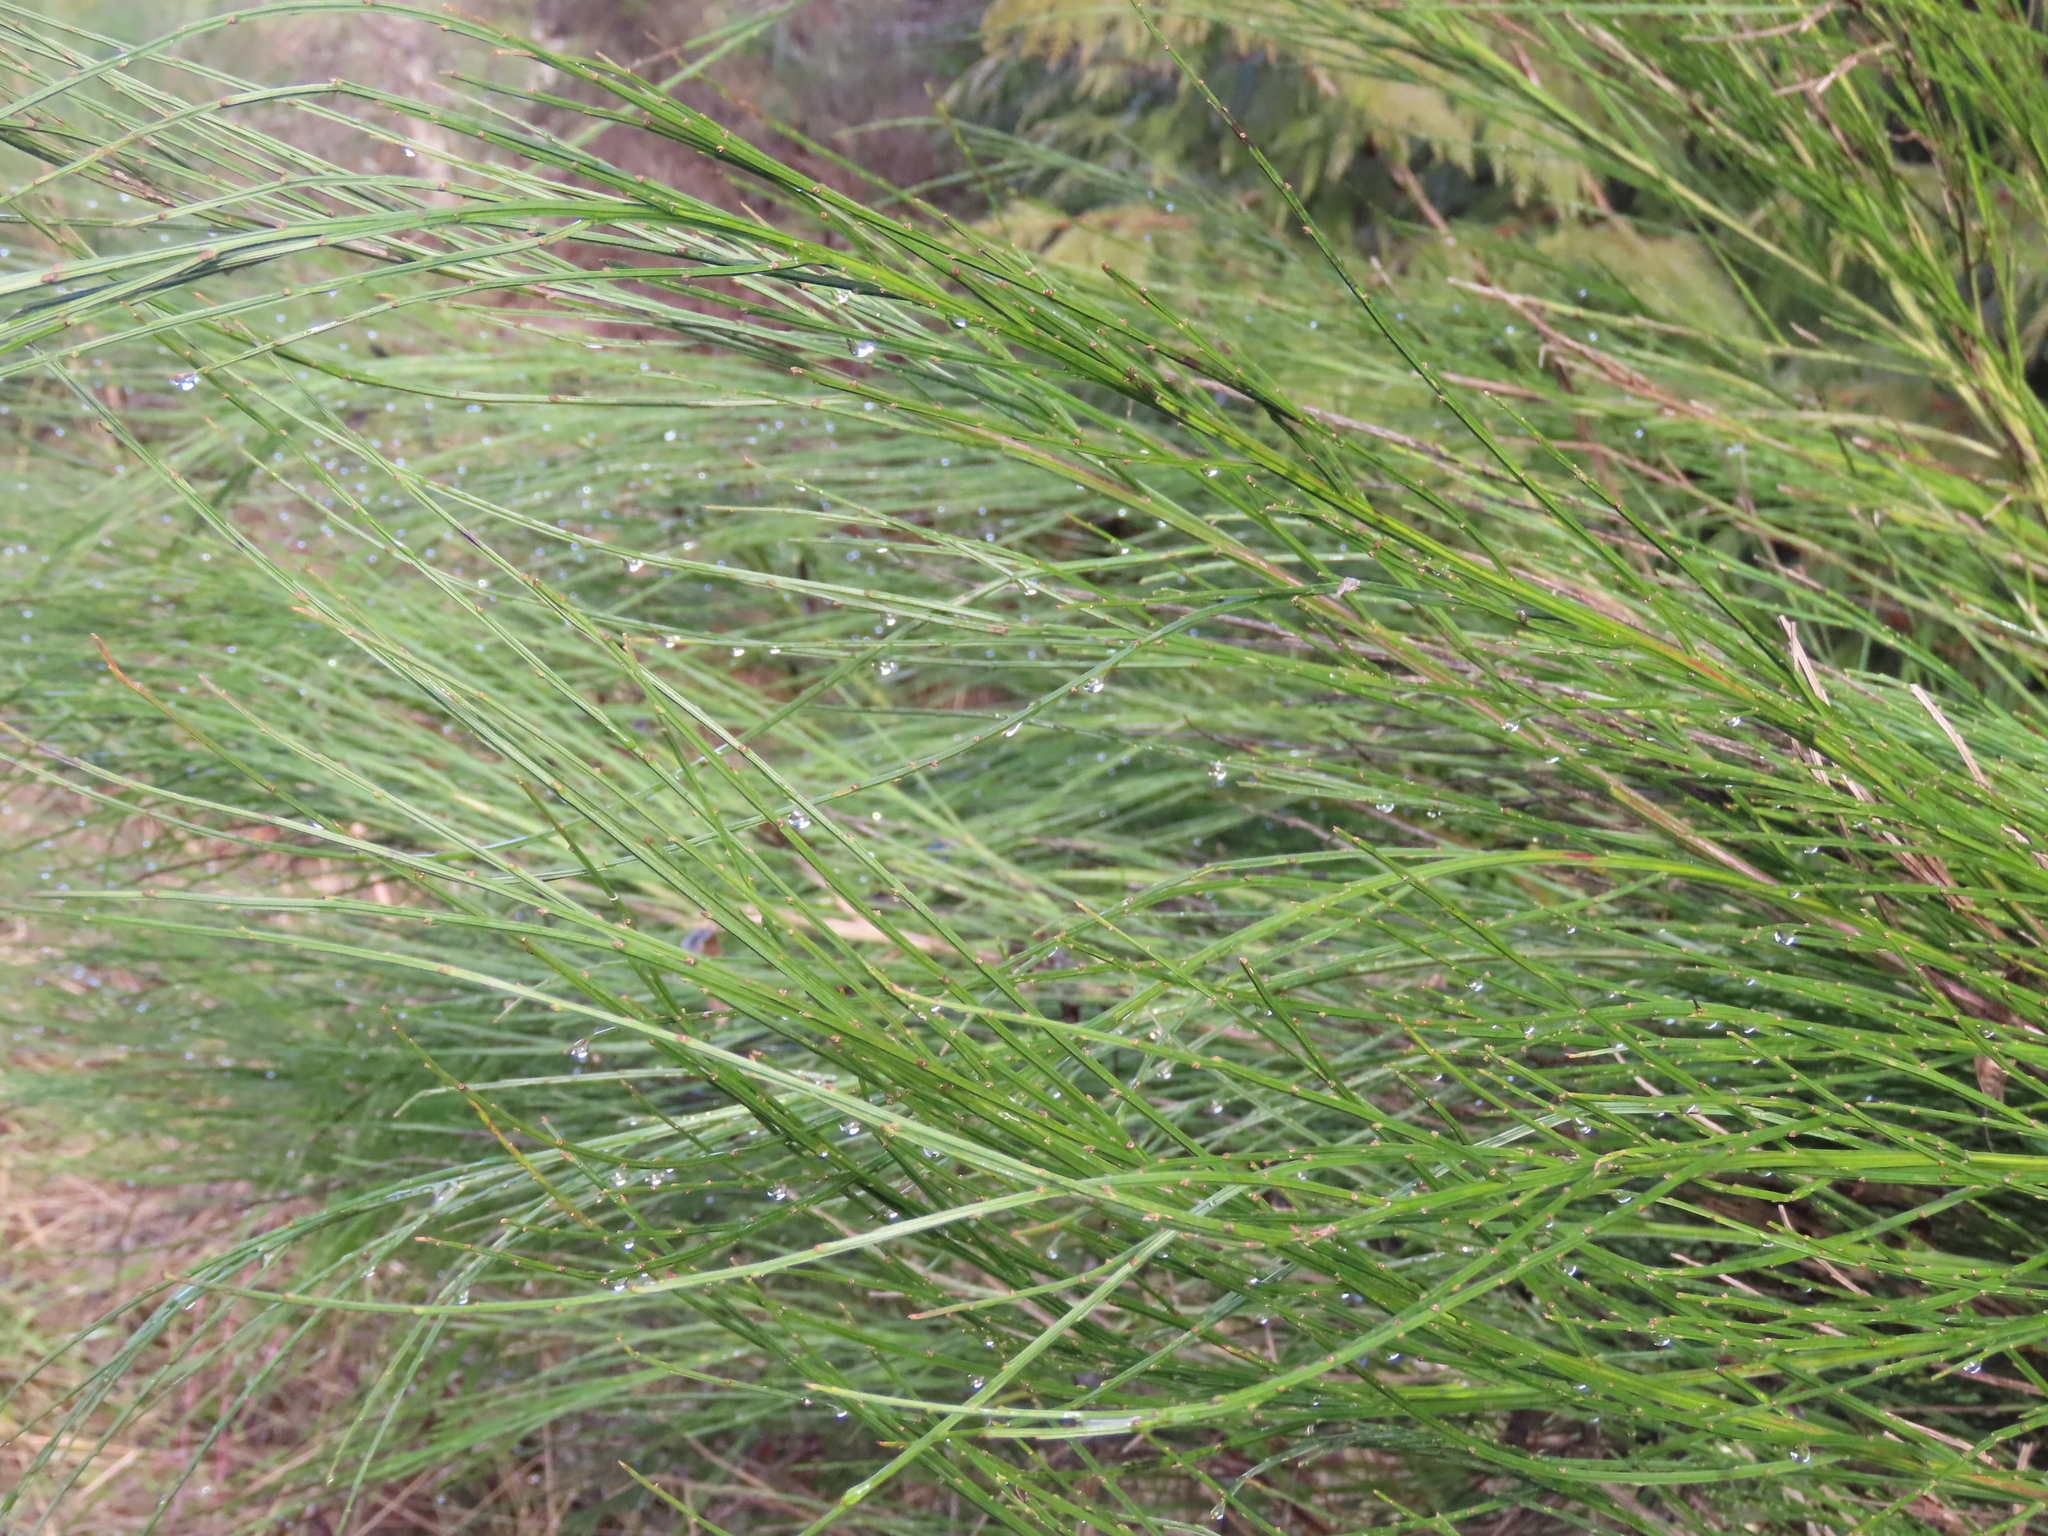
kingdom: Plantae
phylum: Tracheophyta
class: Magnoliopsida
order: Fabales
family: Fabaceae
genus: Cytisus
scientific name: Cytisus scoparius
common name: Scotch broom
